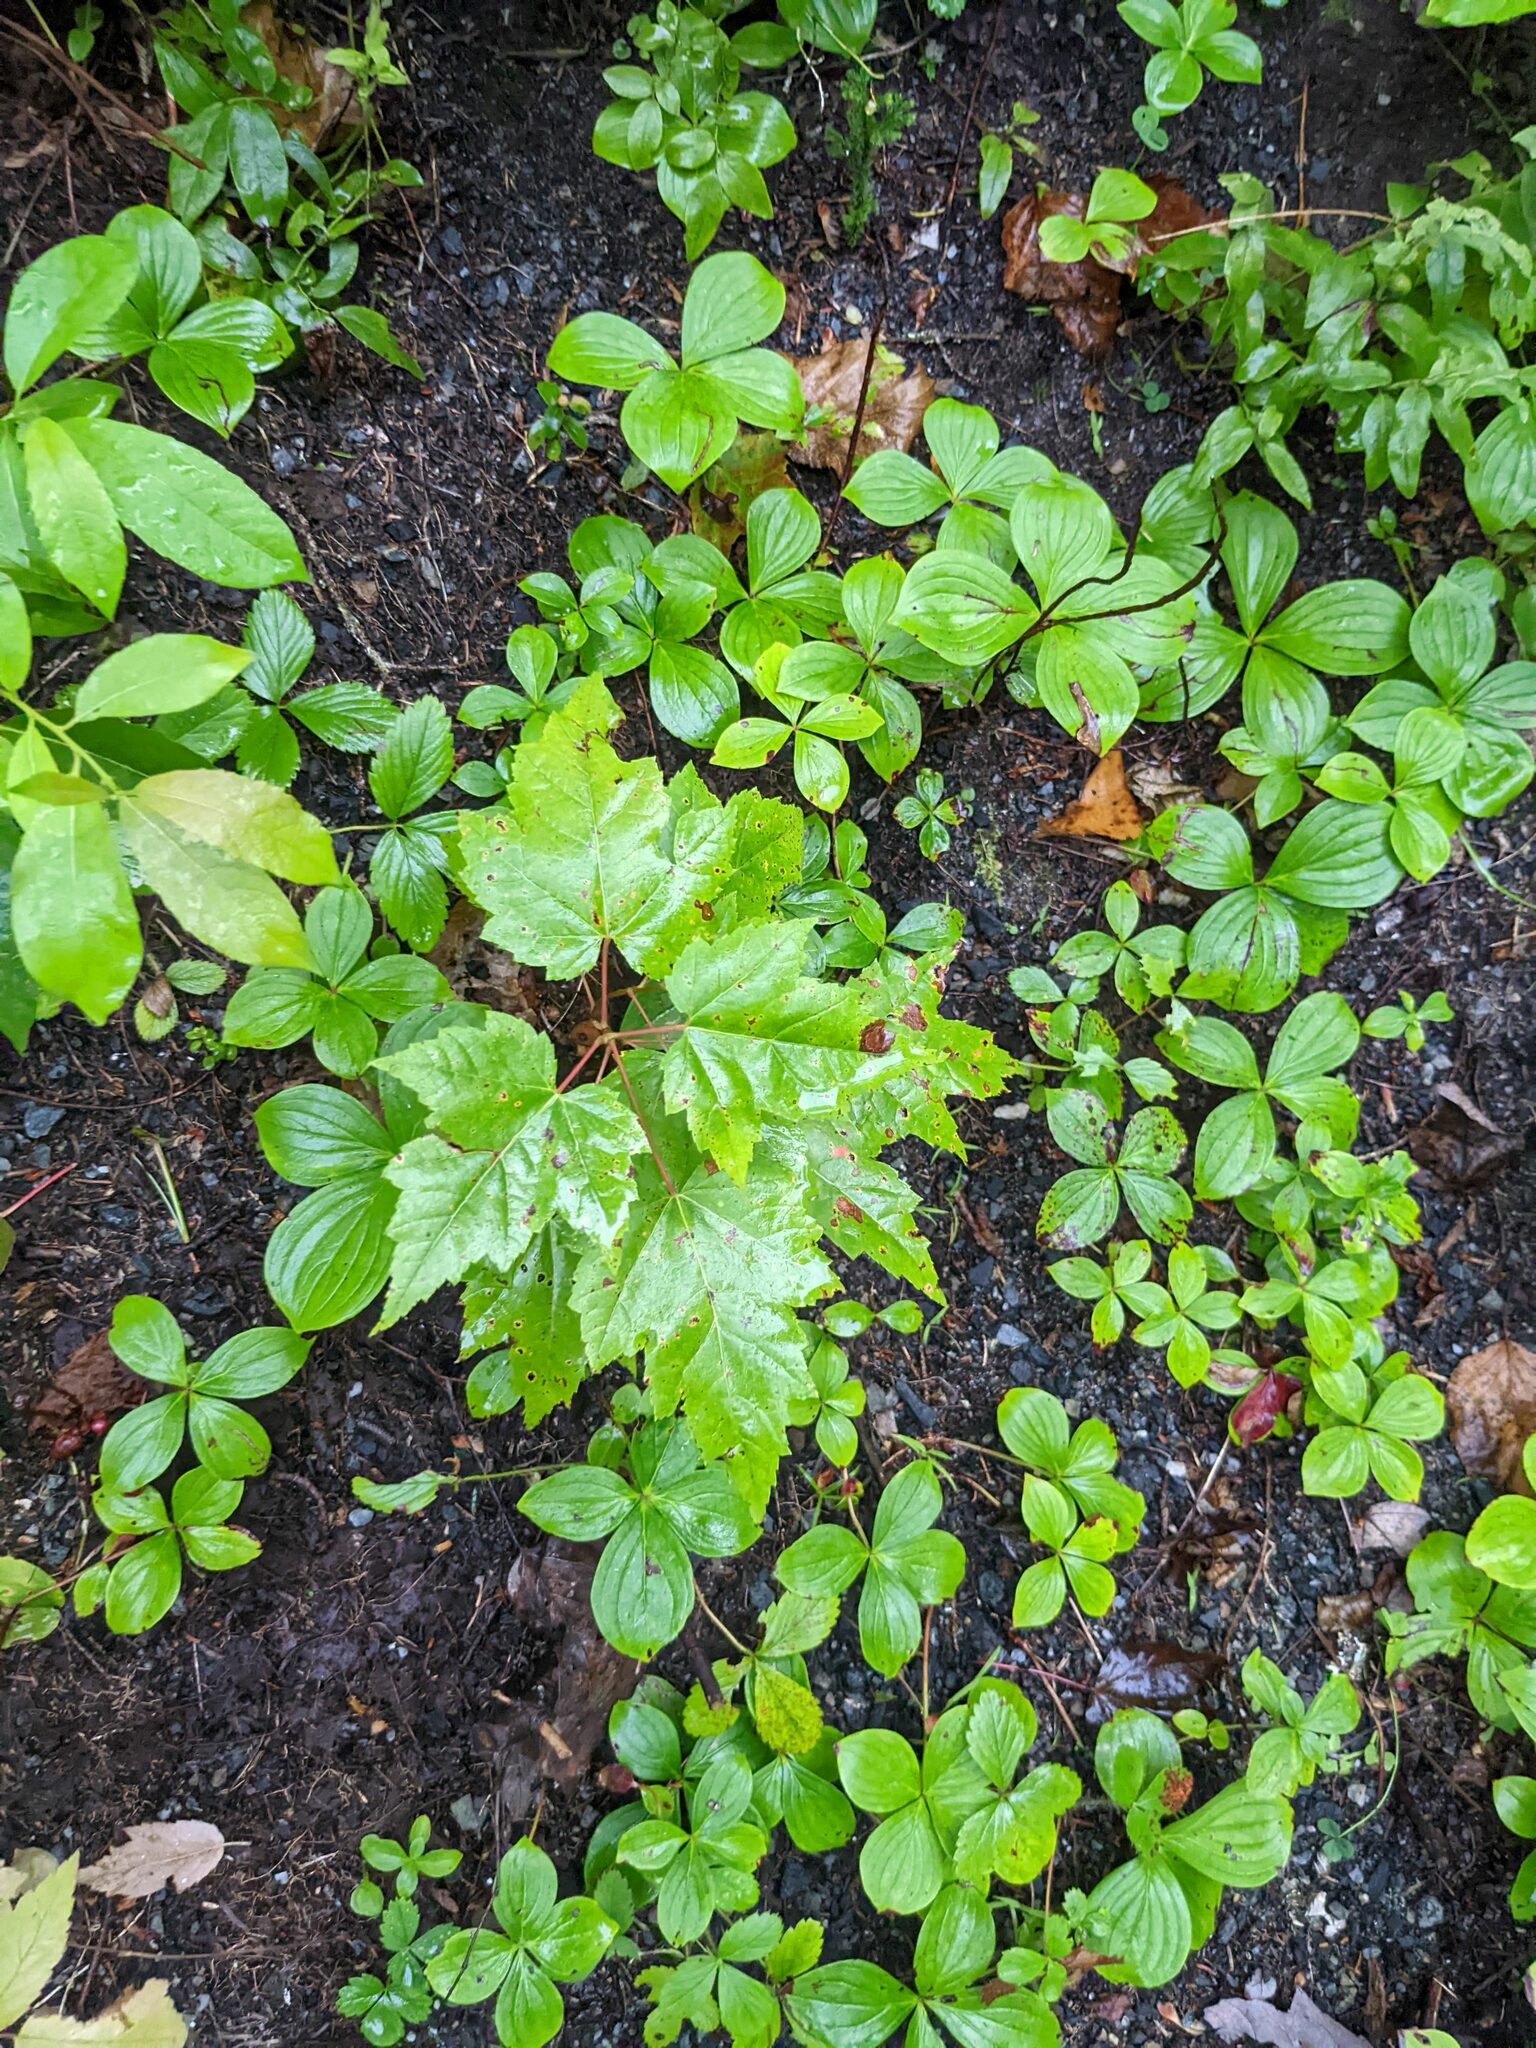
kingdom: Plantae
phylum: Tracheophyta
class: Magnoliopsida
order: Sapindales
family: Sapindaceae
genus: Acer
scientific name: Acer rubrum
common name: Red maple
